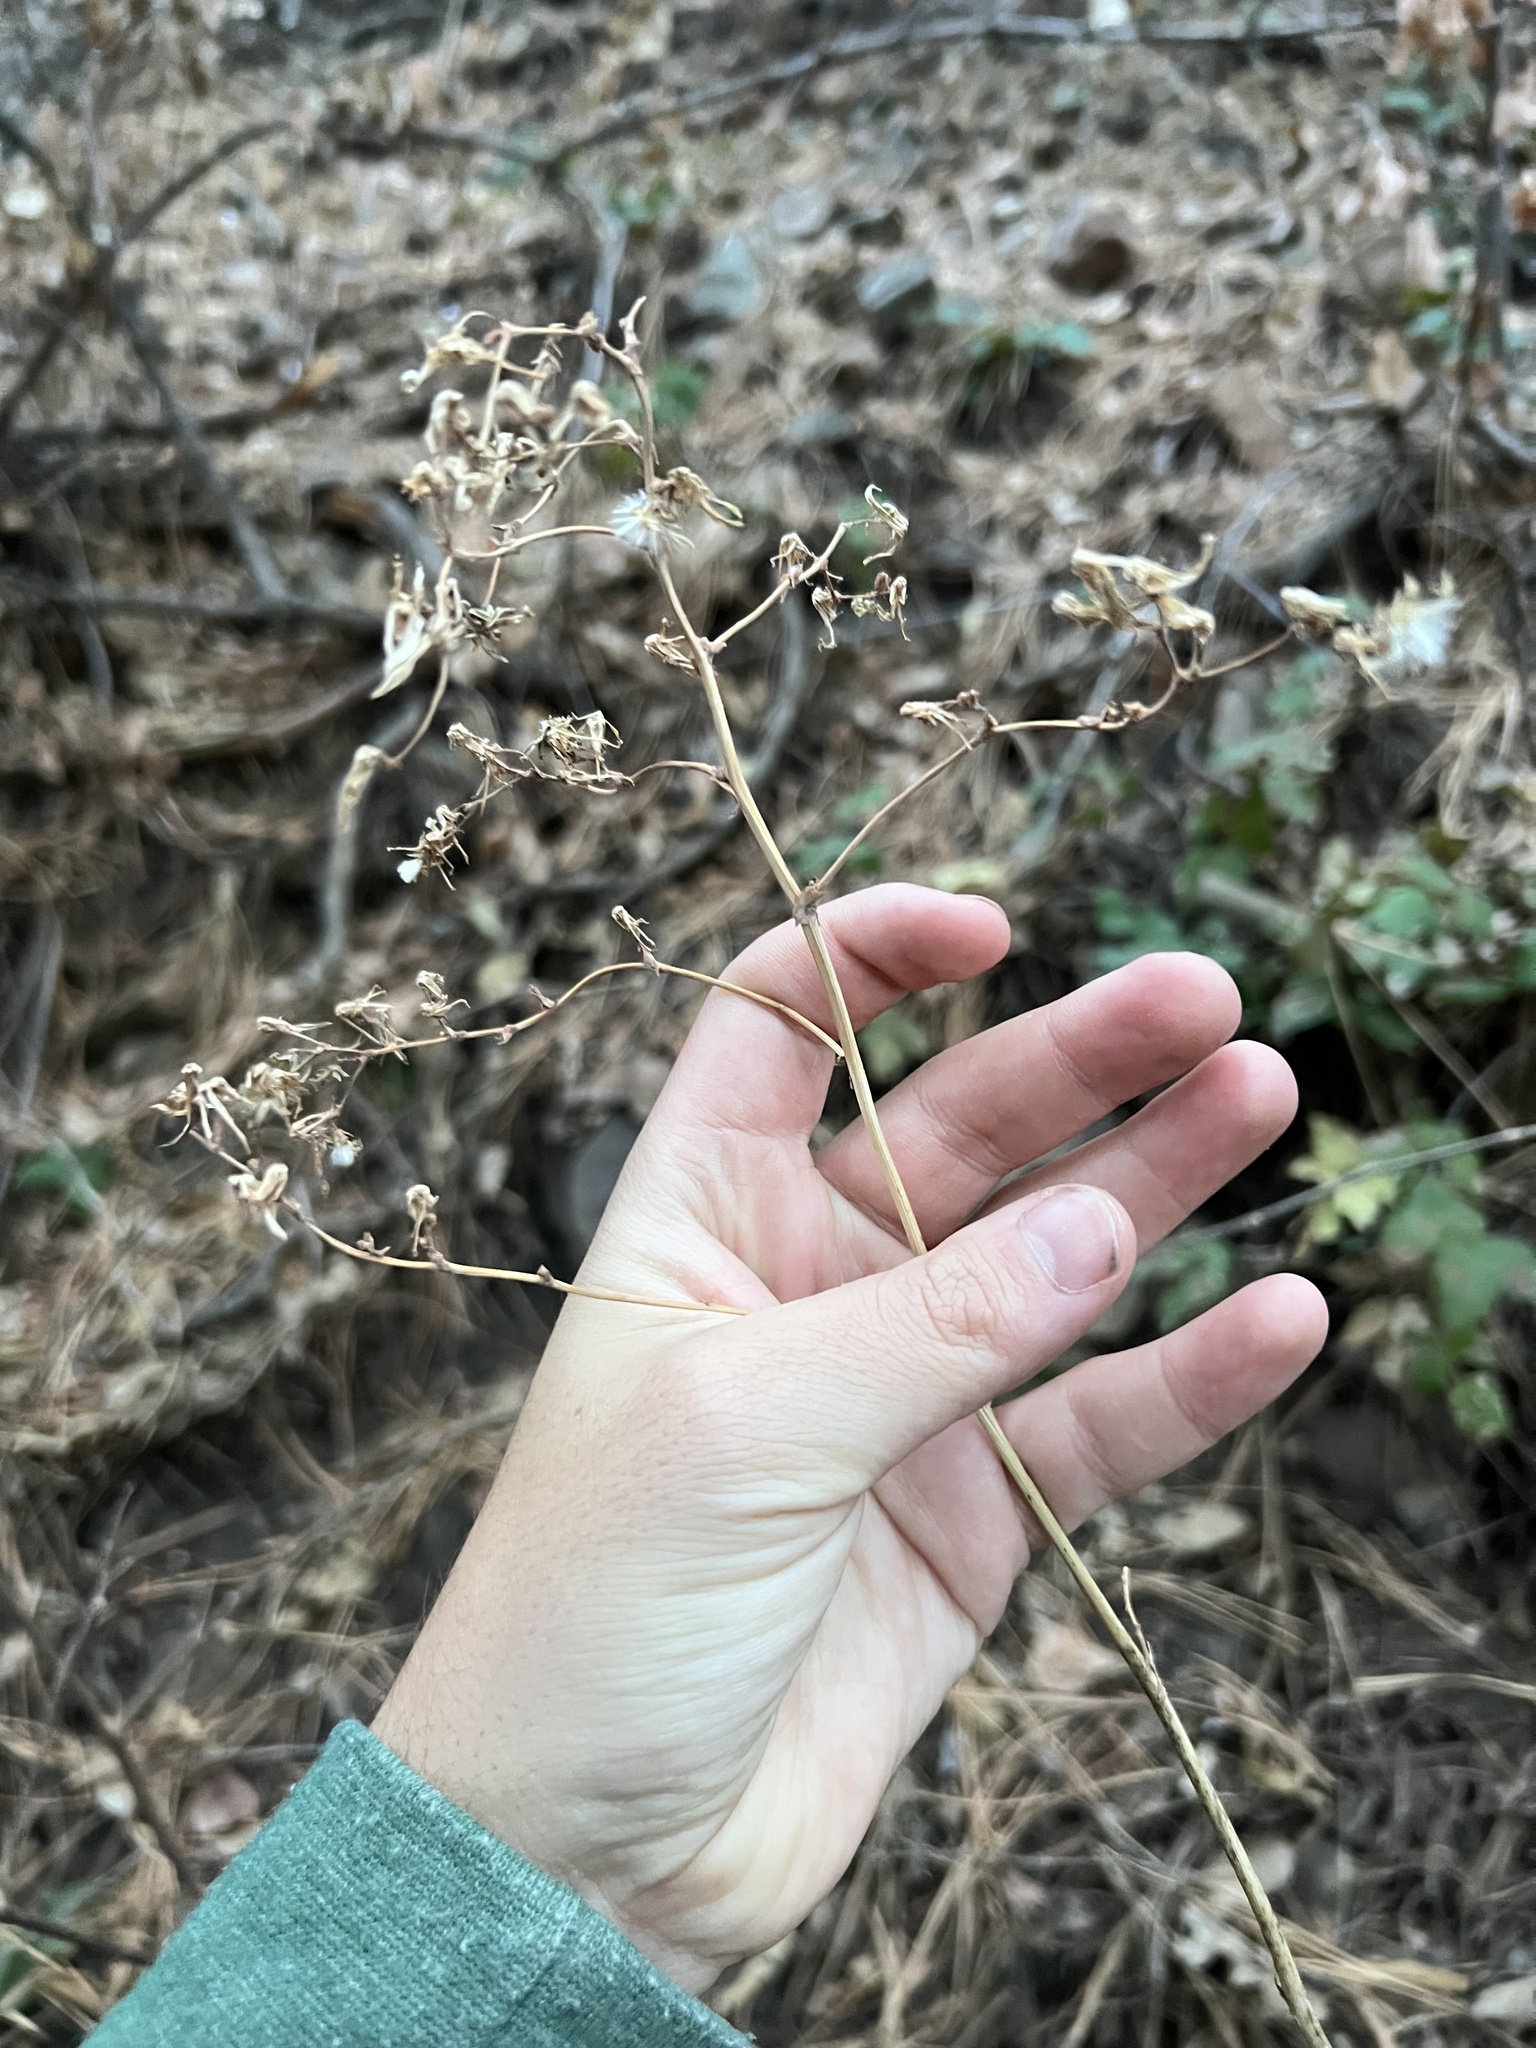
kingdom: Plantae
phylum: Tracheophyta
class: Magnoliopsida
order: Asterales
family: Asteraceae
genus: Lactuca
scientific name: Lactuca serriola
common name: Prickly lettuce
